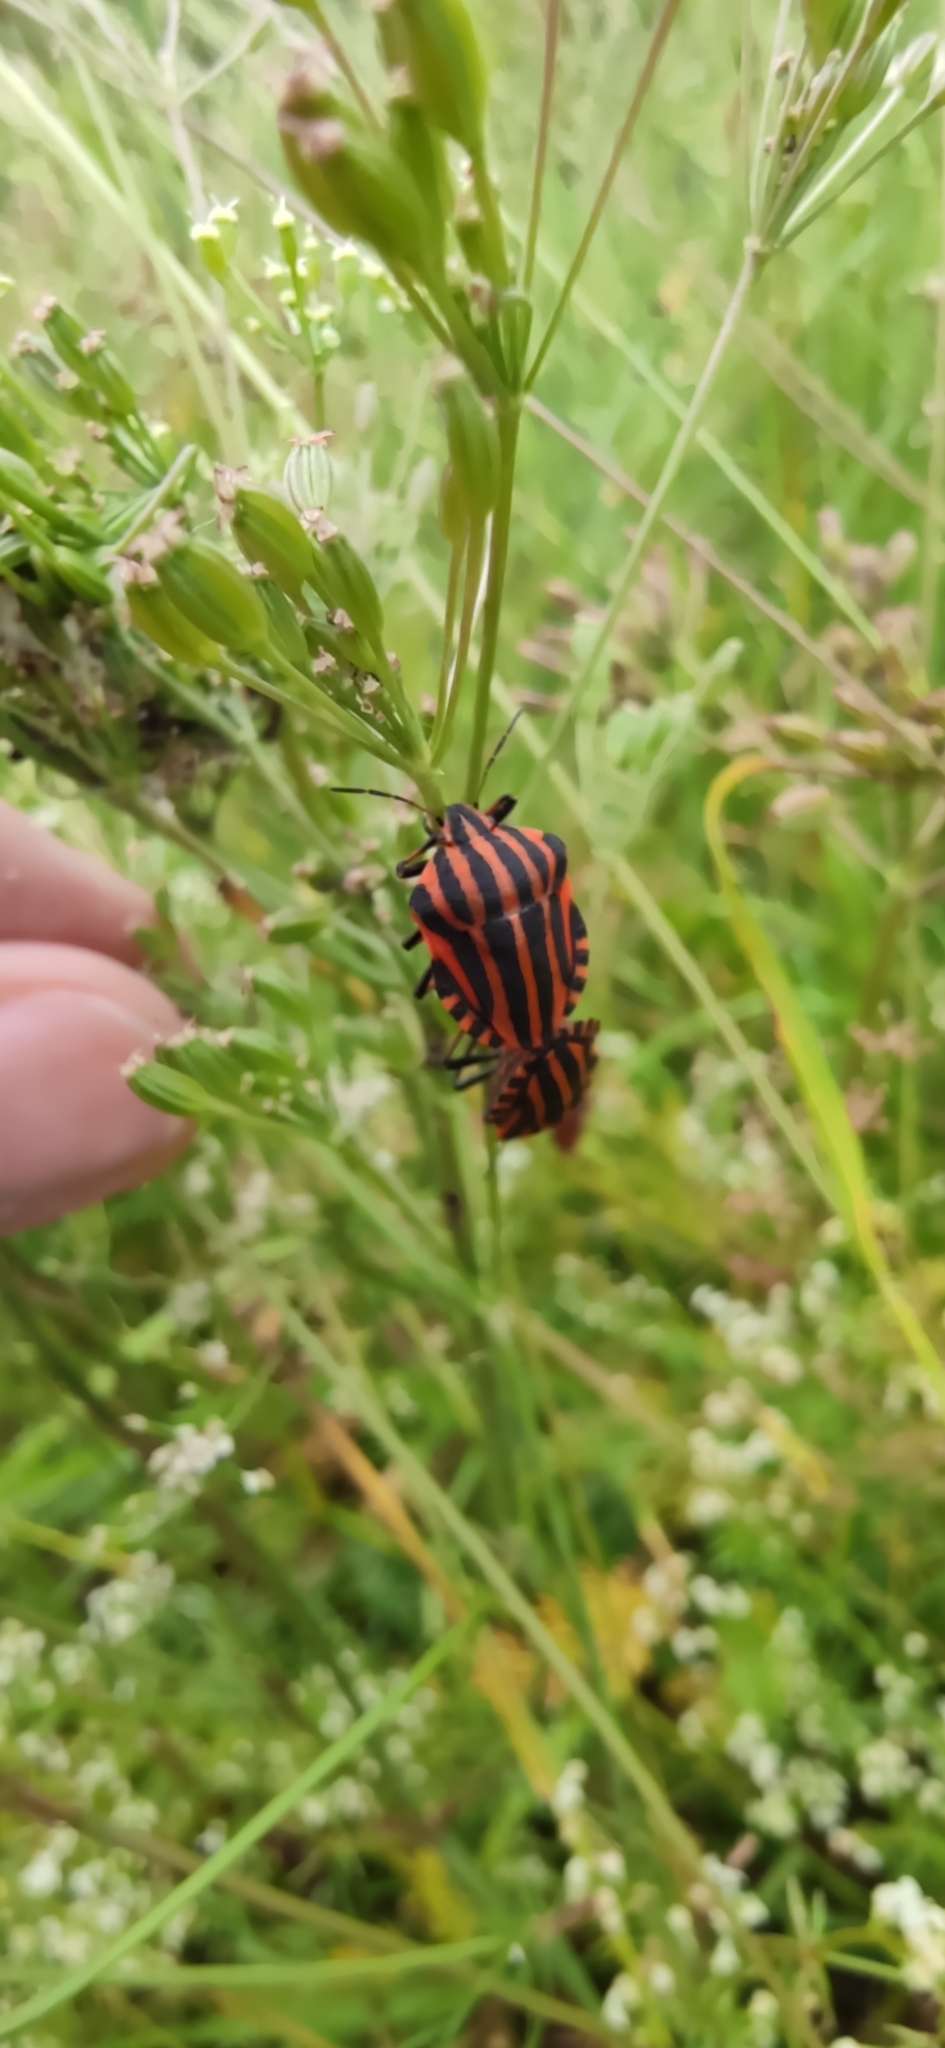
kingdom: Animalia
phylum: Arthropoda
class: Insecta
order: Hemiptera
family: Pentatomidae
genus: Graphosoma
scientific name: Graphosoma italicum
